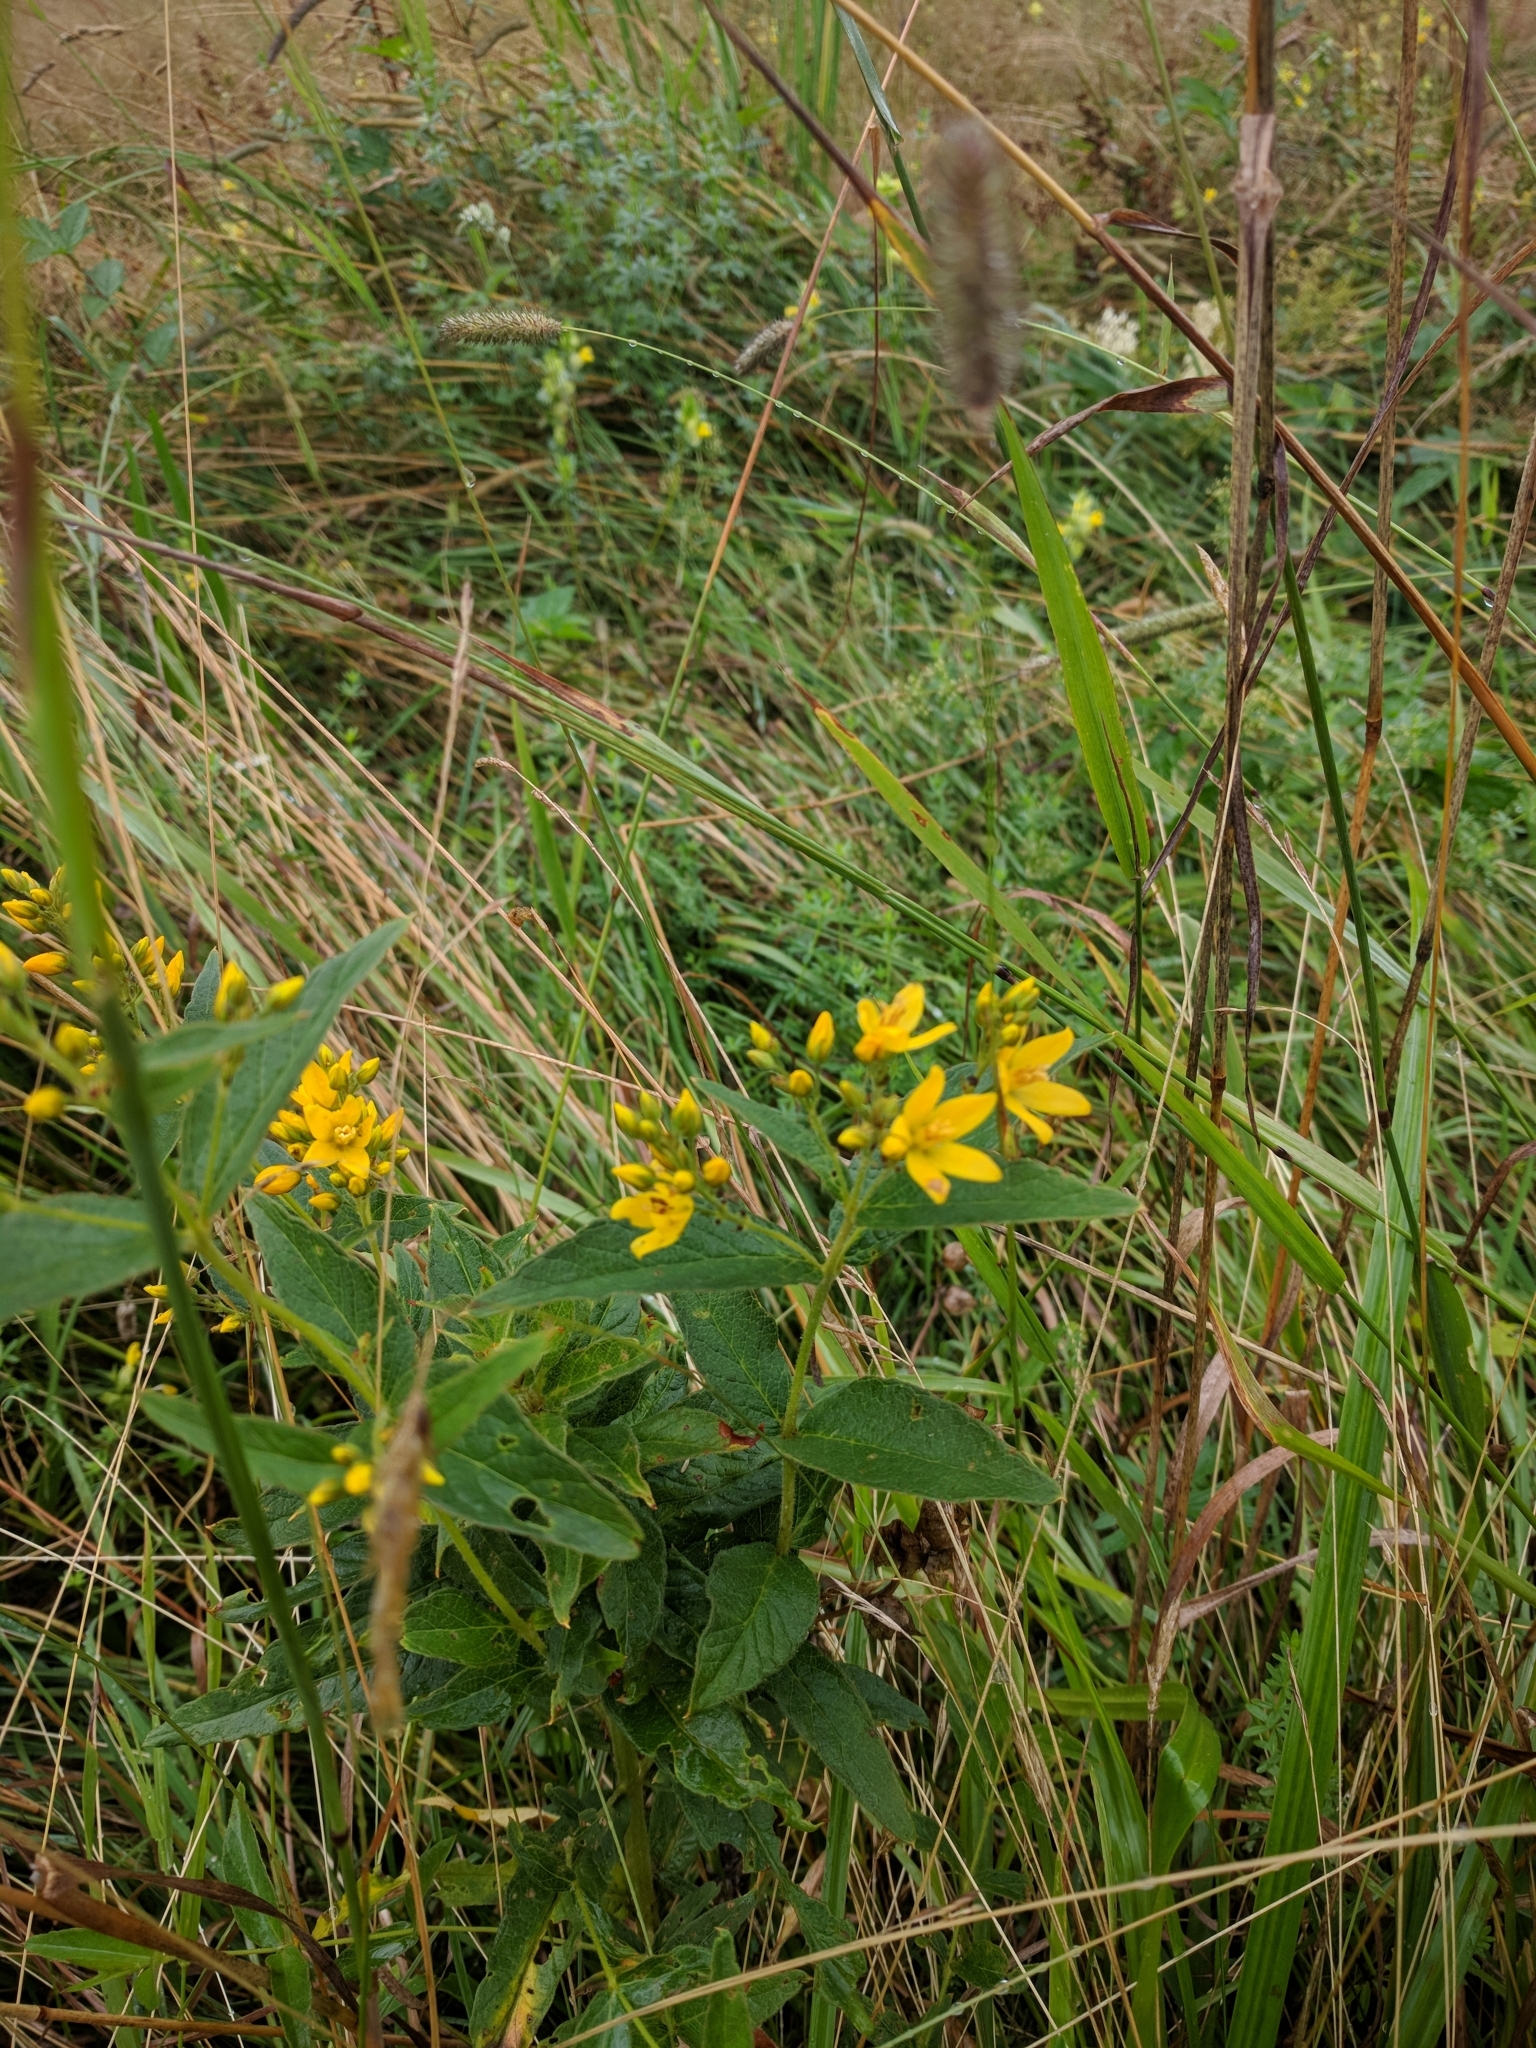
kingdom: Plantae
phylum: Tracheophyta
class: Magnoliopsida
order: Ericales
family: Primulaceae
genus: Lysimachia
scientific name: Lysimachia vulgaris
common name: Yellow loosestrife
